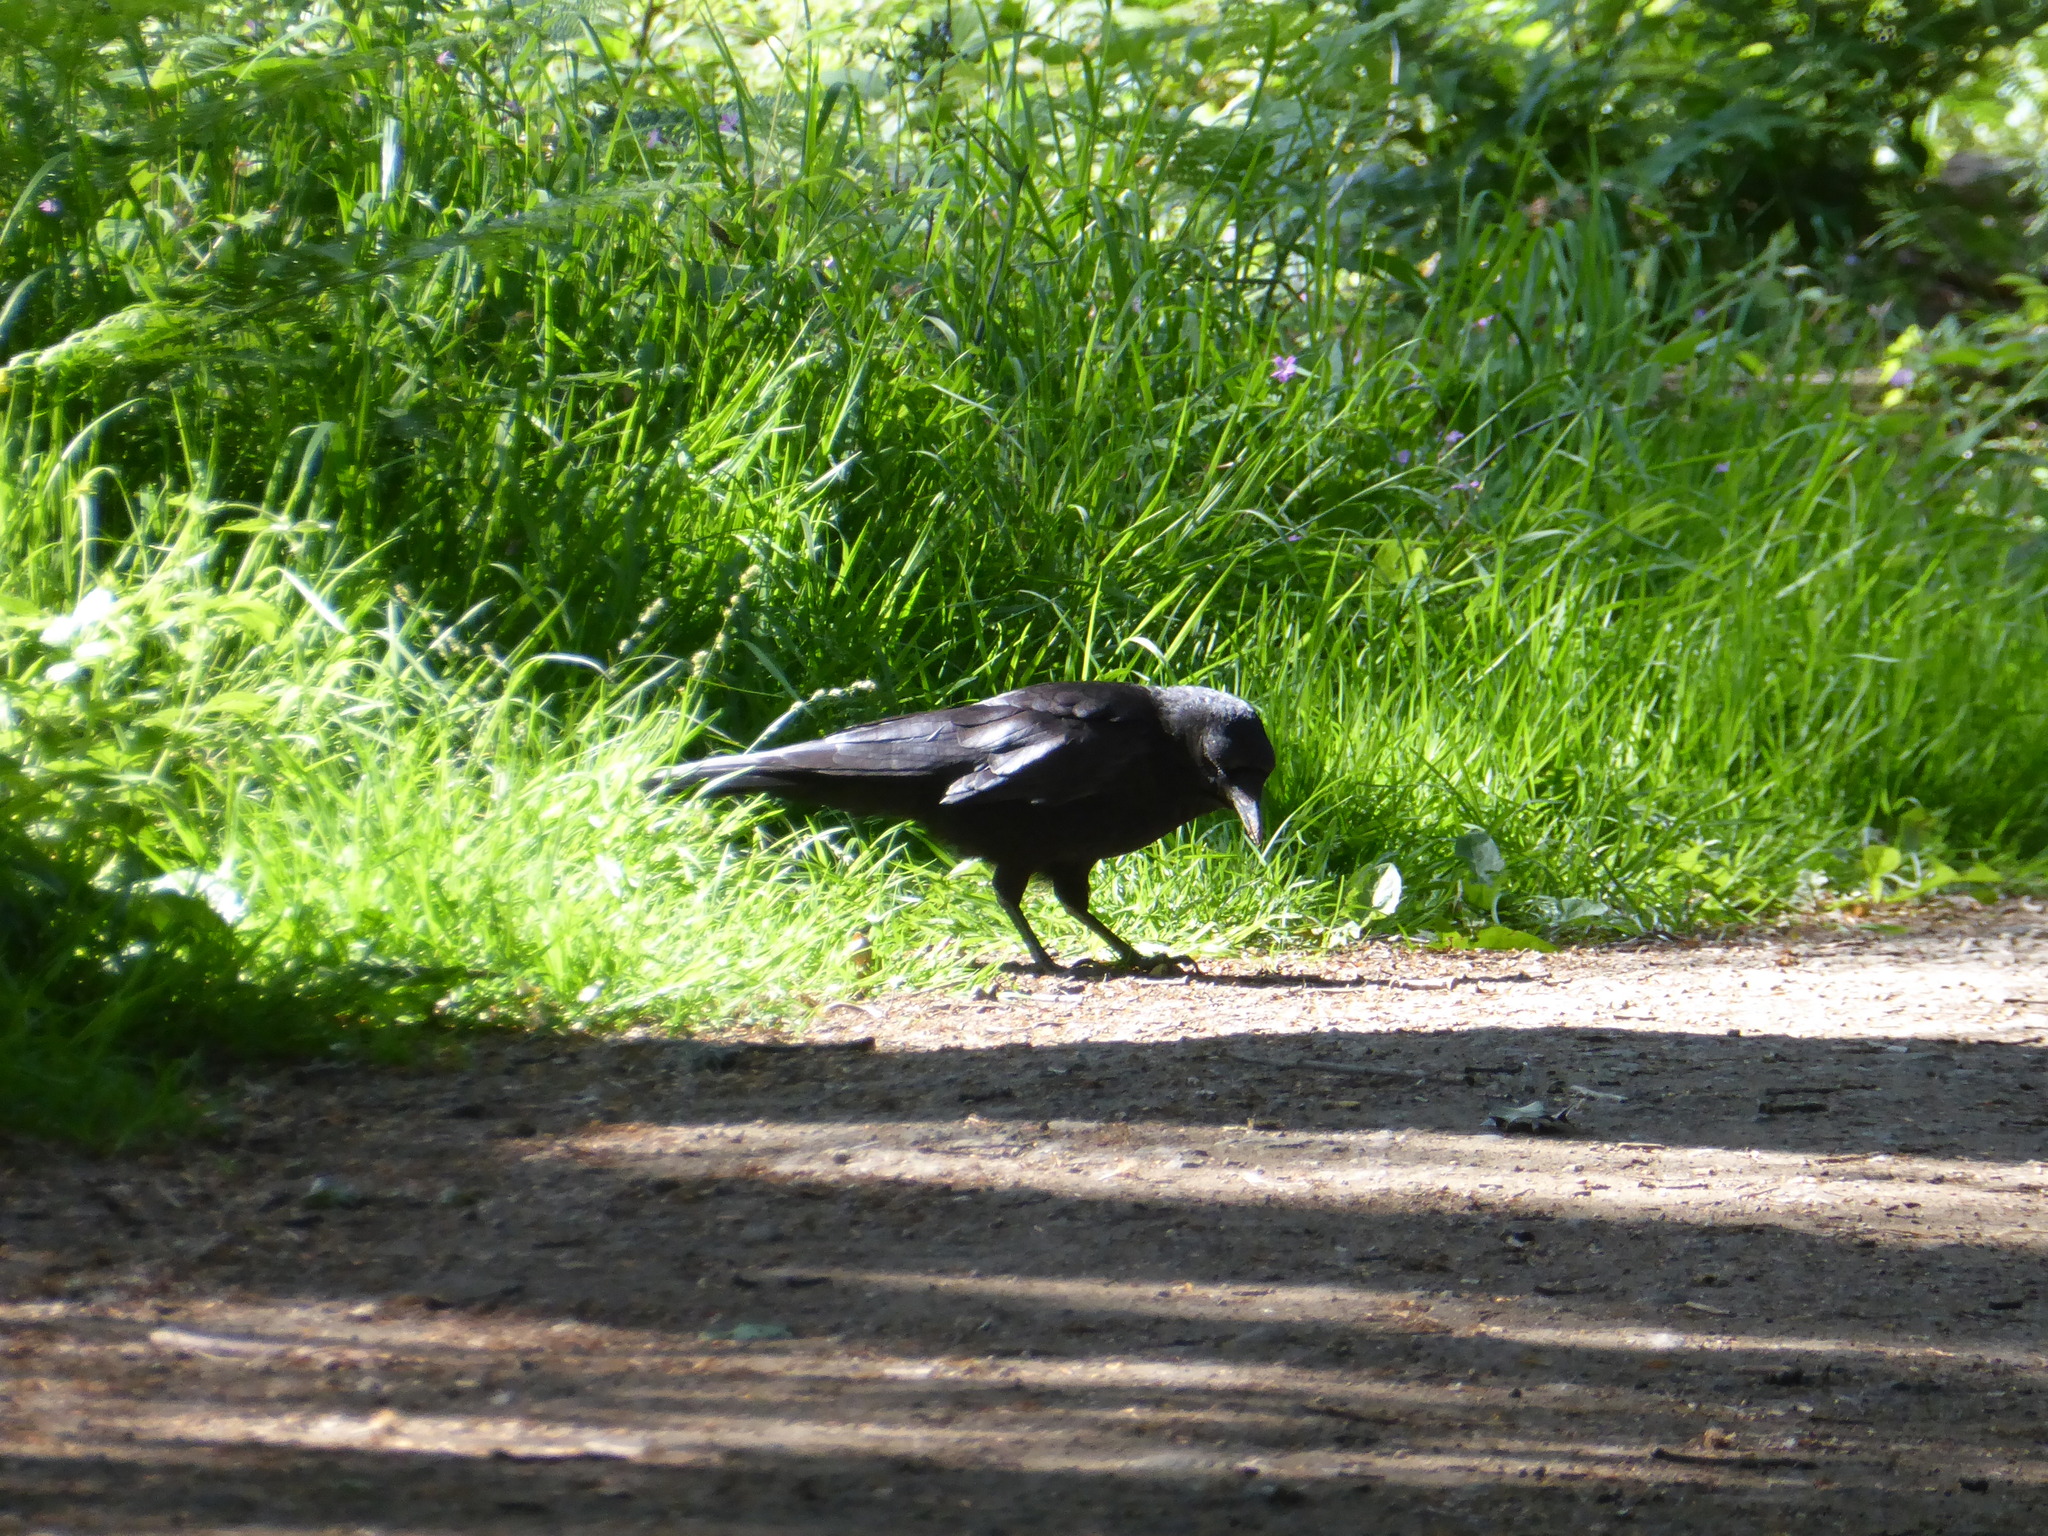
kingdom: Animalia
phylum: Chordata
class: Aves
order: Passeriformes
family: Corvidae
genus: Corvus
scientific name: Corvus corone
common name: Carrion crow
